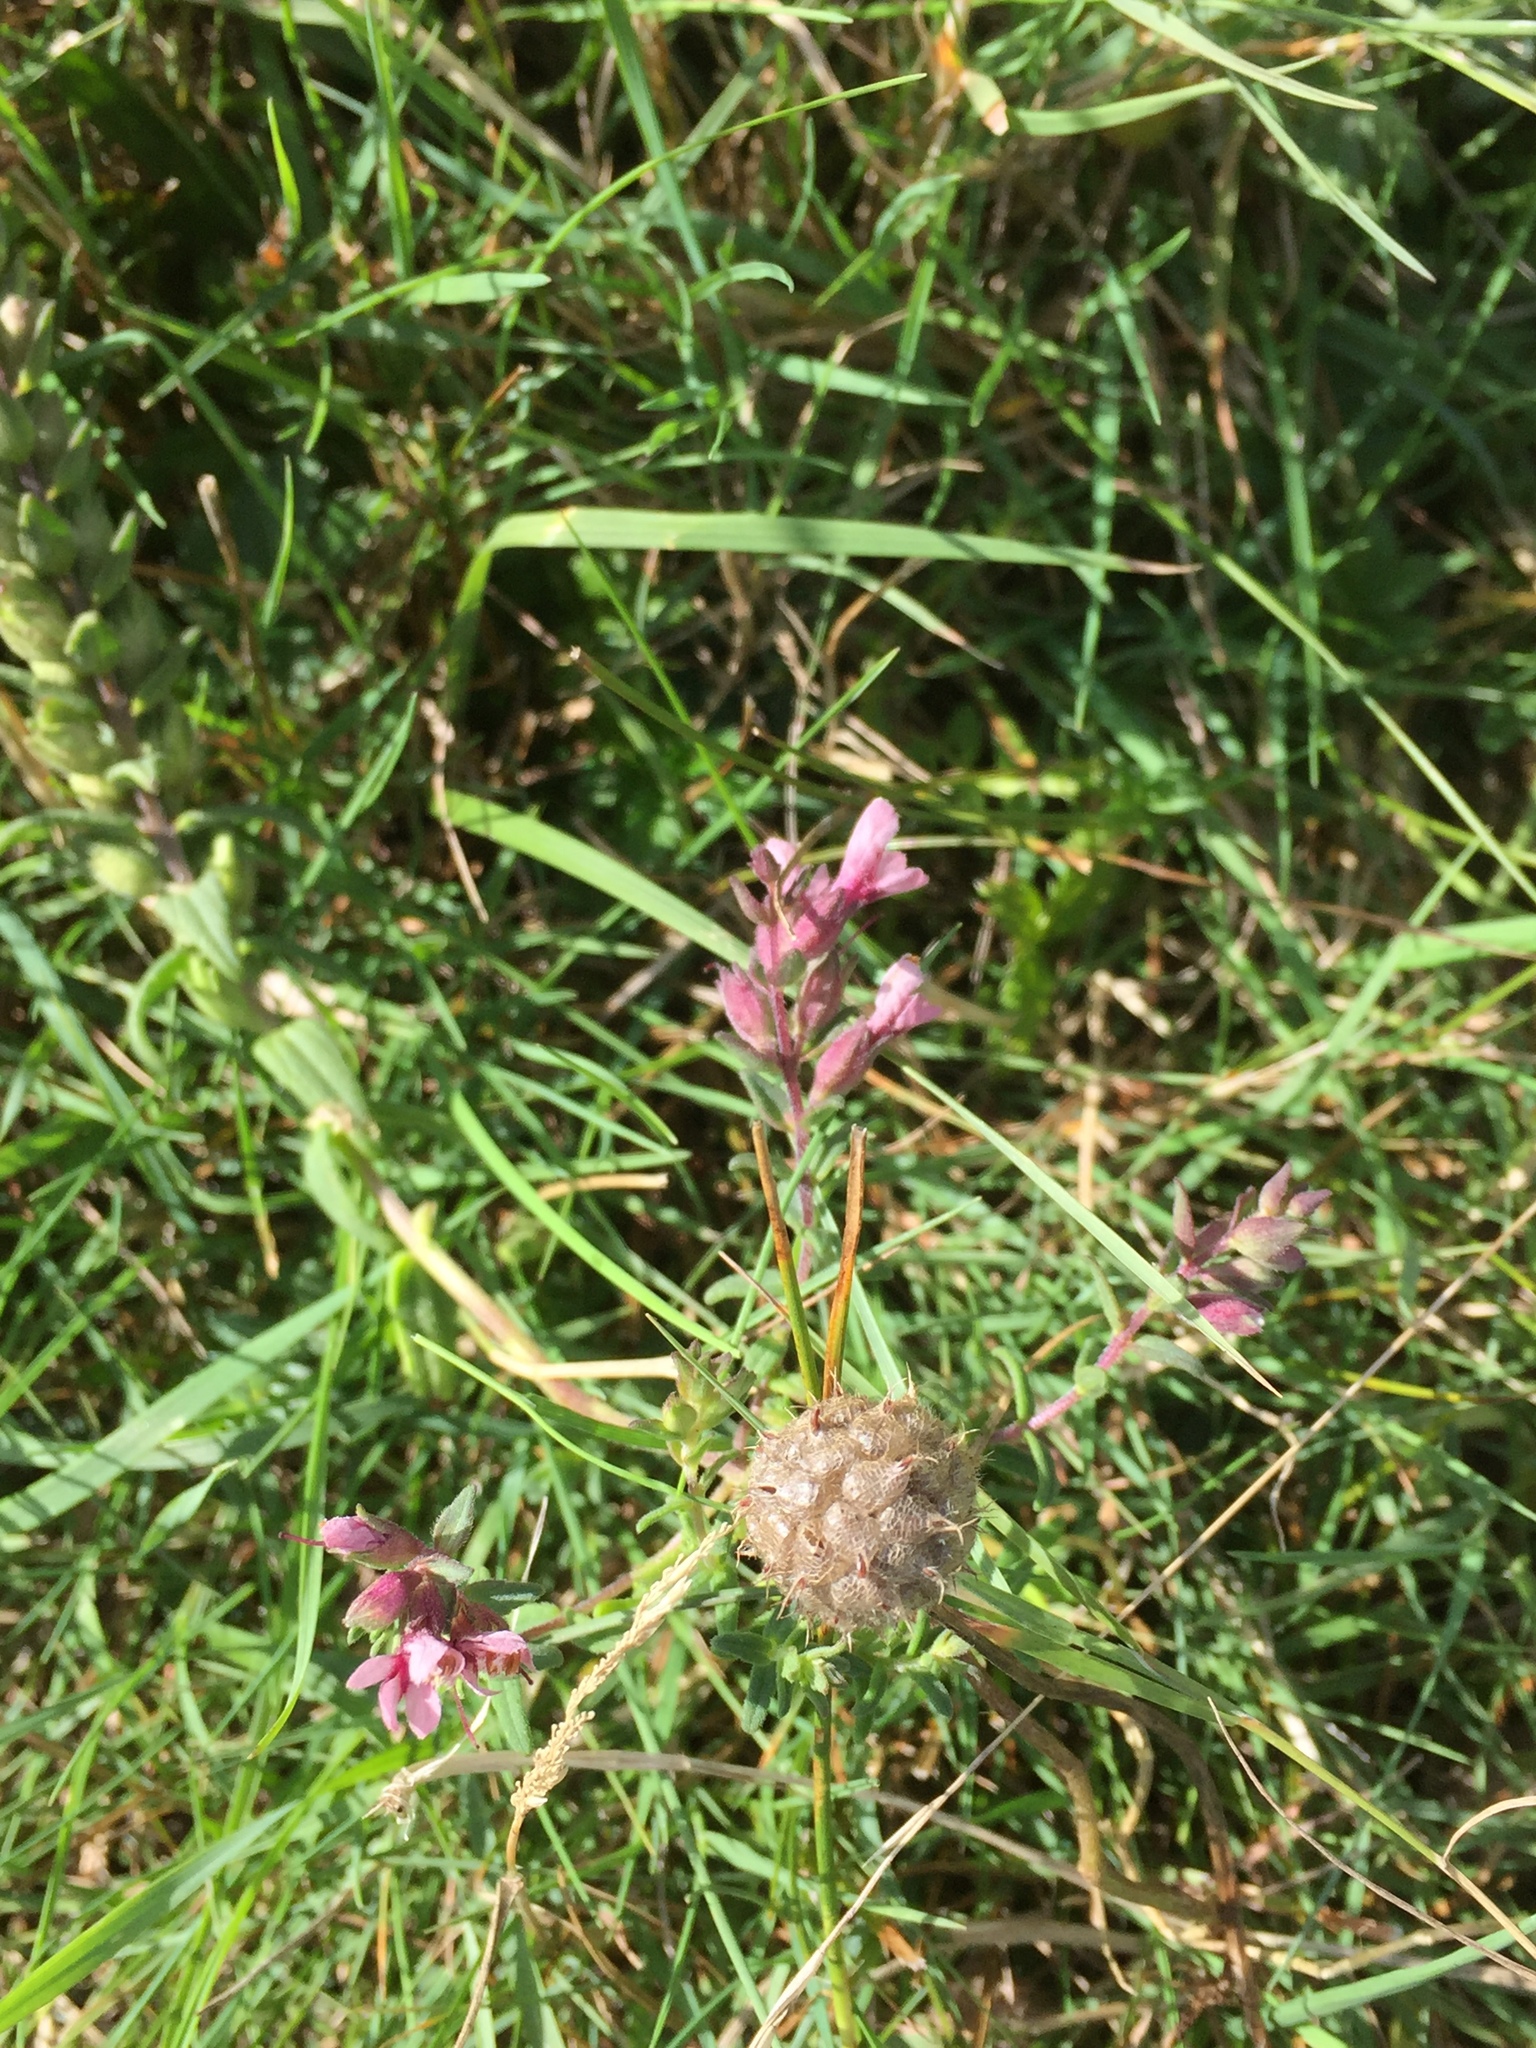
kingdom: Plantae
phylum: Tracheophyta
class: Magnoliopsida
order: Fabales
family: Fabaceae
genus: Trifolium
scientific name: Trifolium fragiferum
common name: Strawberry clover
